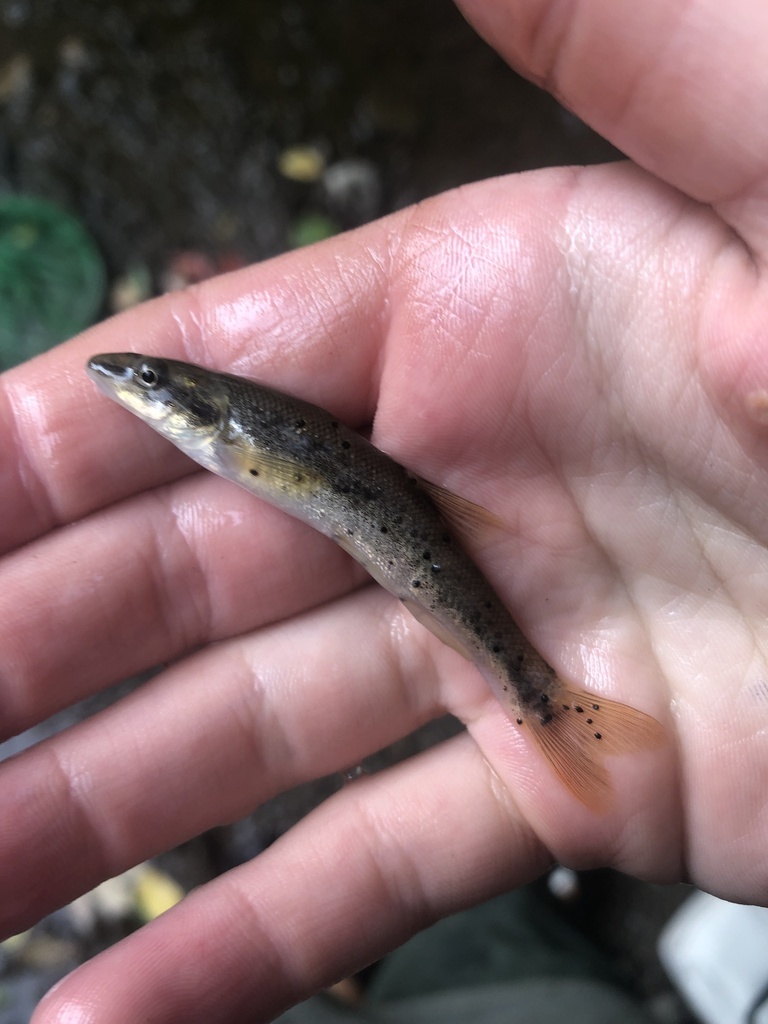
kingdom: Animalia
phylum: Platyhelminthes
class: Trematoda
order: Diplostomida
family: Diplostomidae
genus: Neascus
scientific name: Neascus
